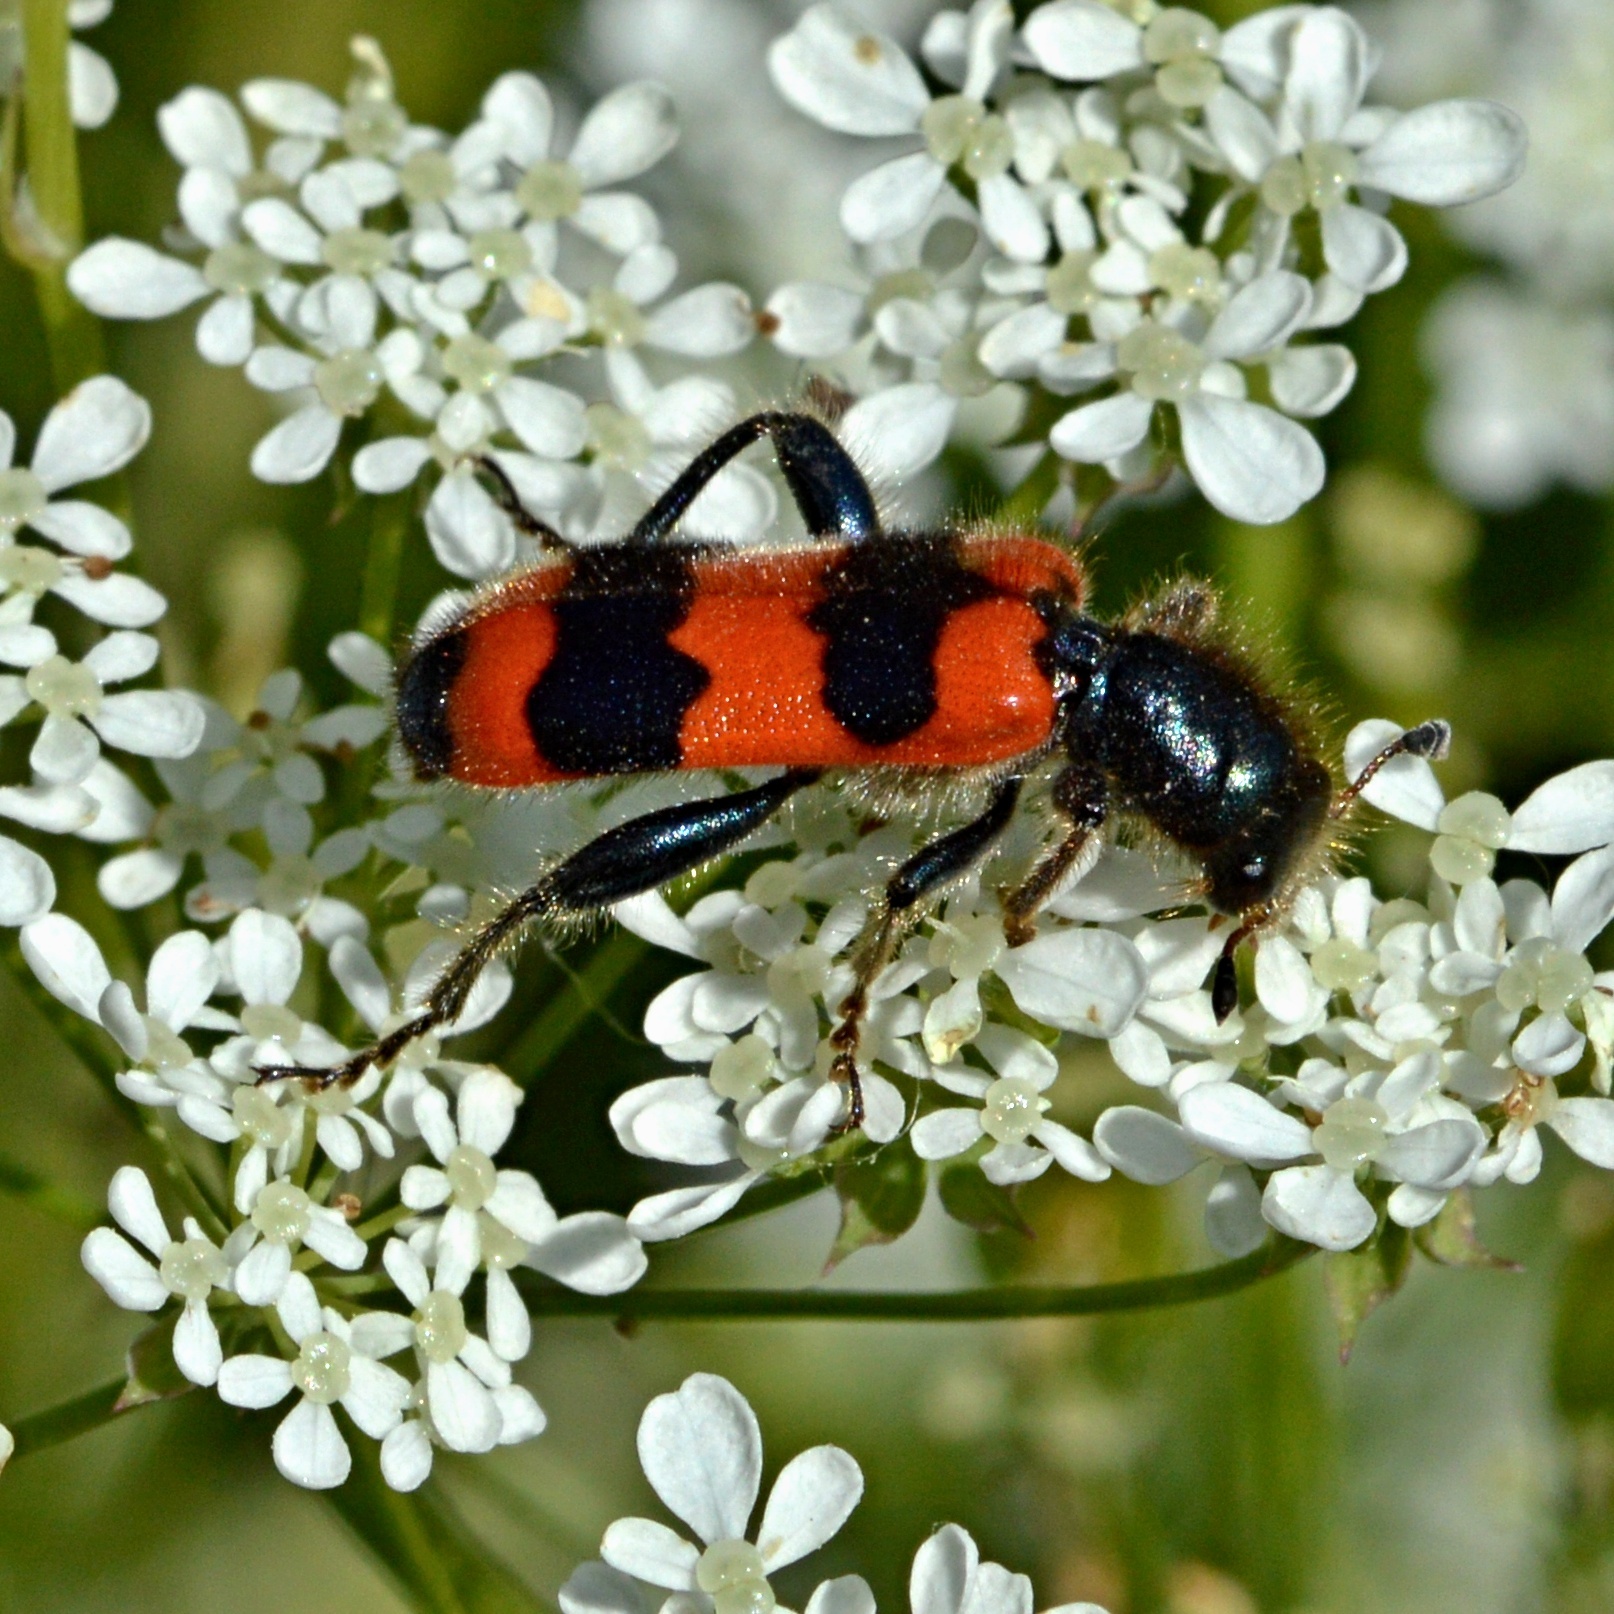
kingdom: Animalia
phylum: Arthropoda
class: Insecta
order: Coleoptera
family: Cleridae
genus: Trichodes
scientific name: Trichodes apiarius
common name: Bee-eating beetle
